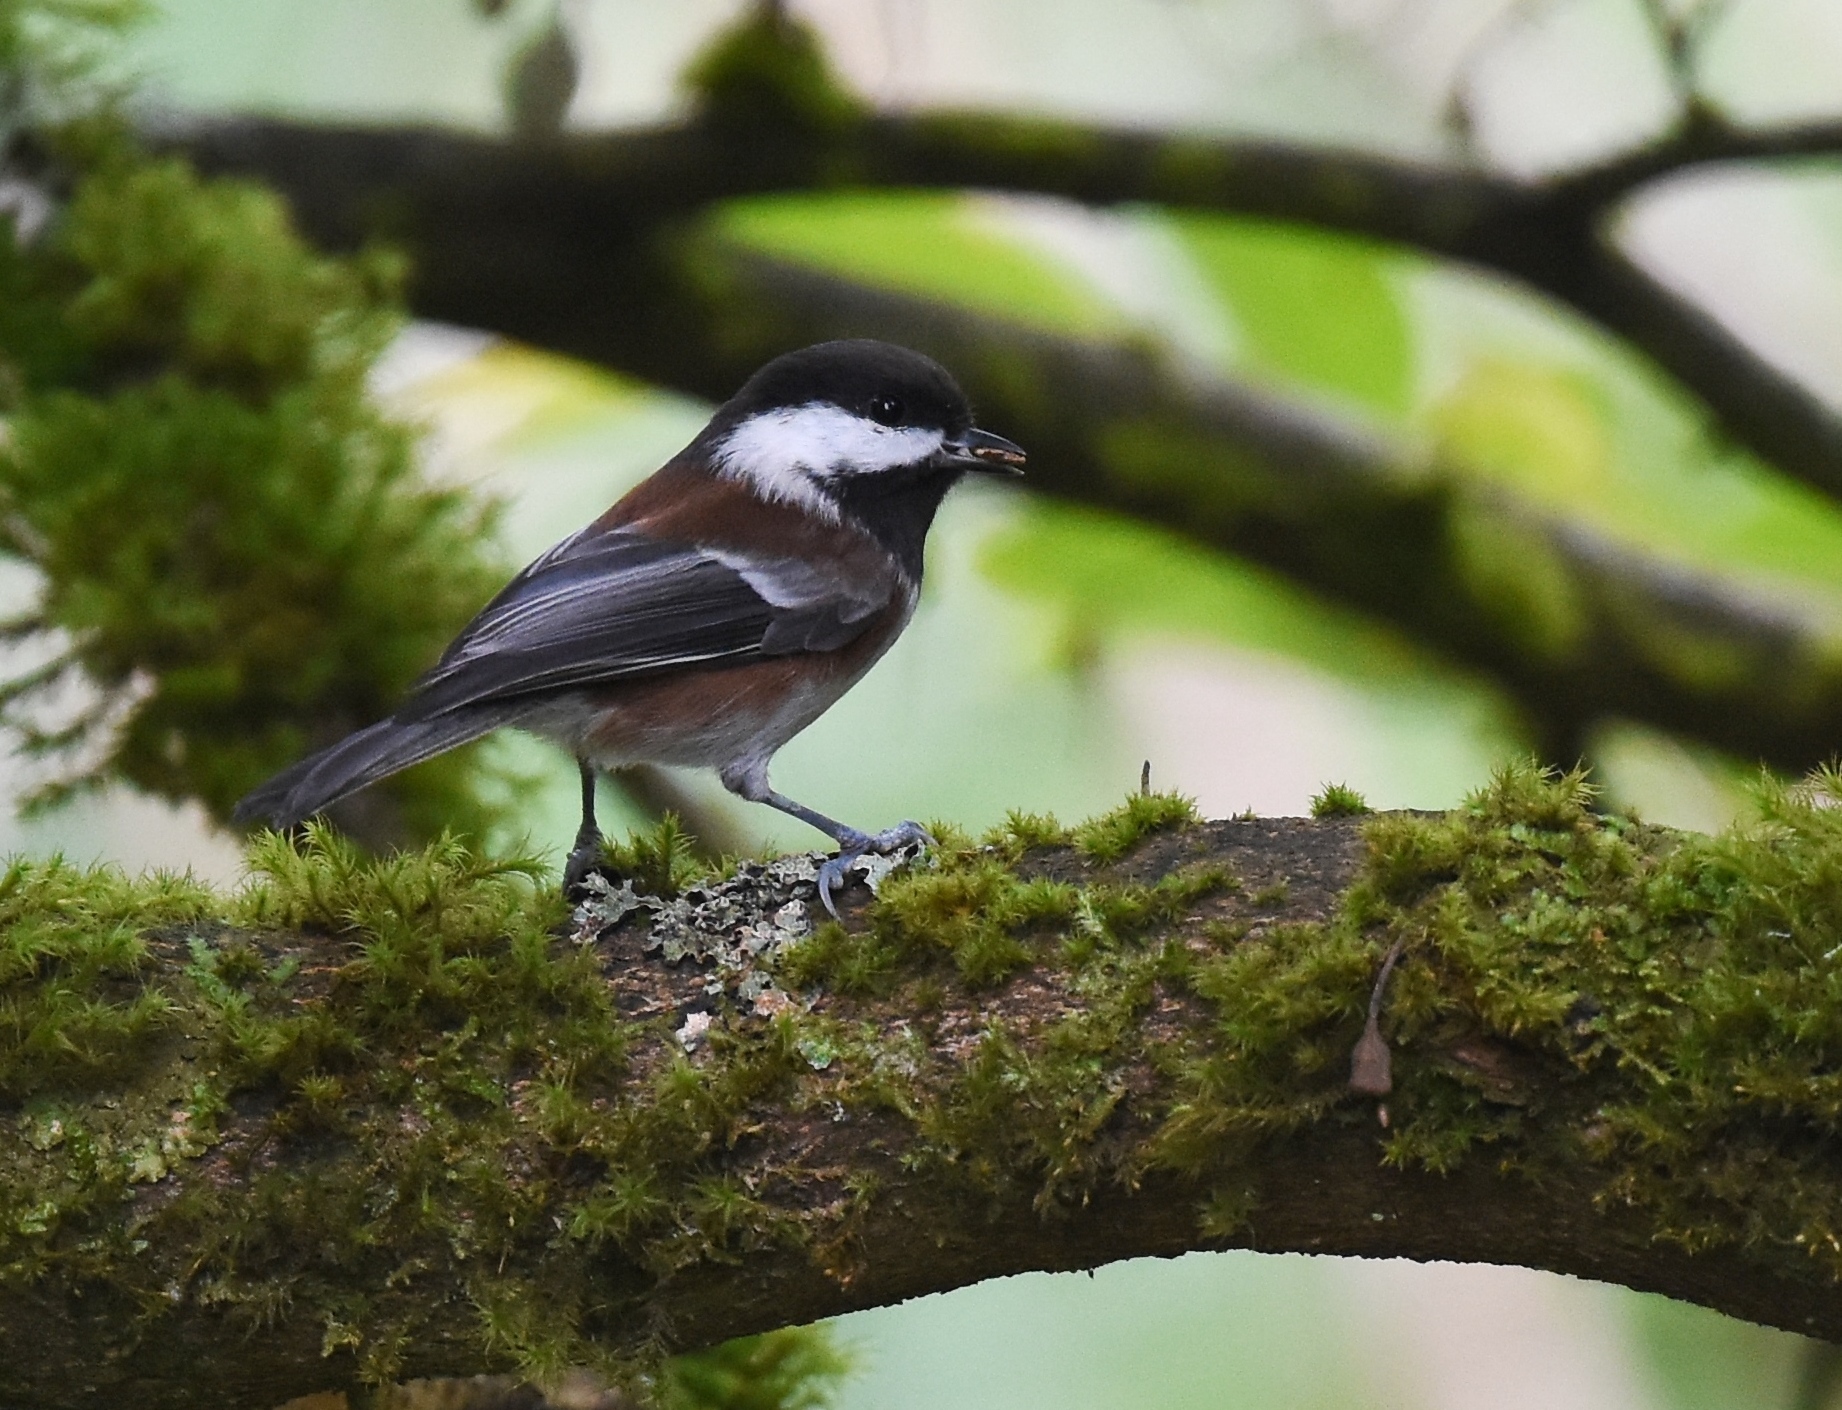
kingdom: Animalia
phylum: Chordata
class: Aves
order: Passeriformes
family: Paridae
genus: Poecile
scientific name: Poecile rufescens
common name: Chestnut-backed chickadee
